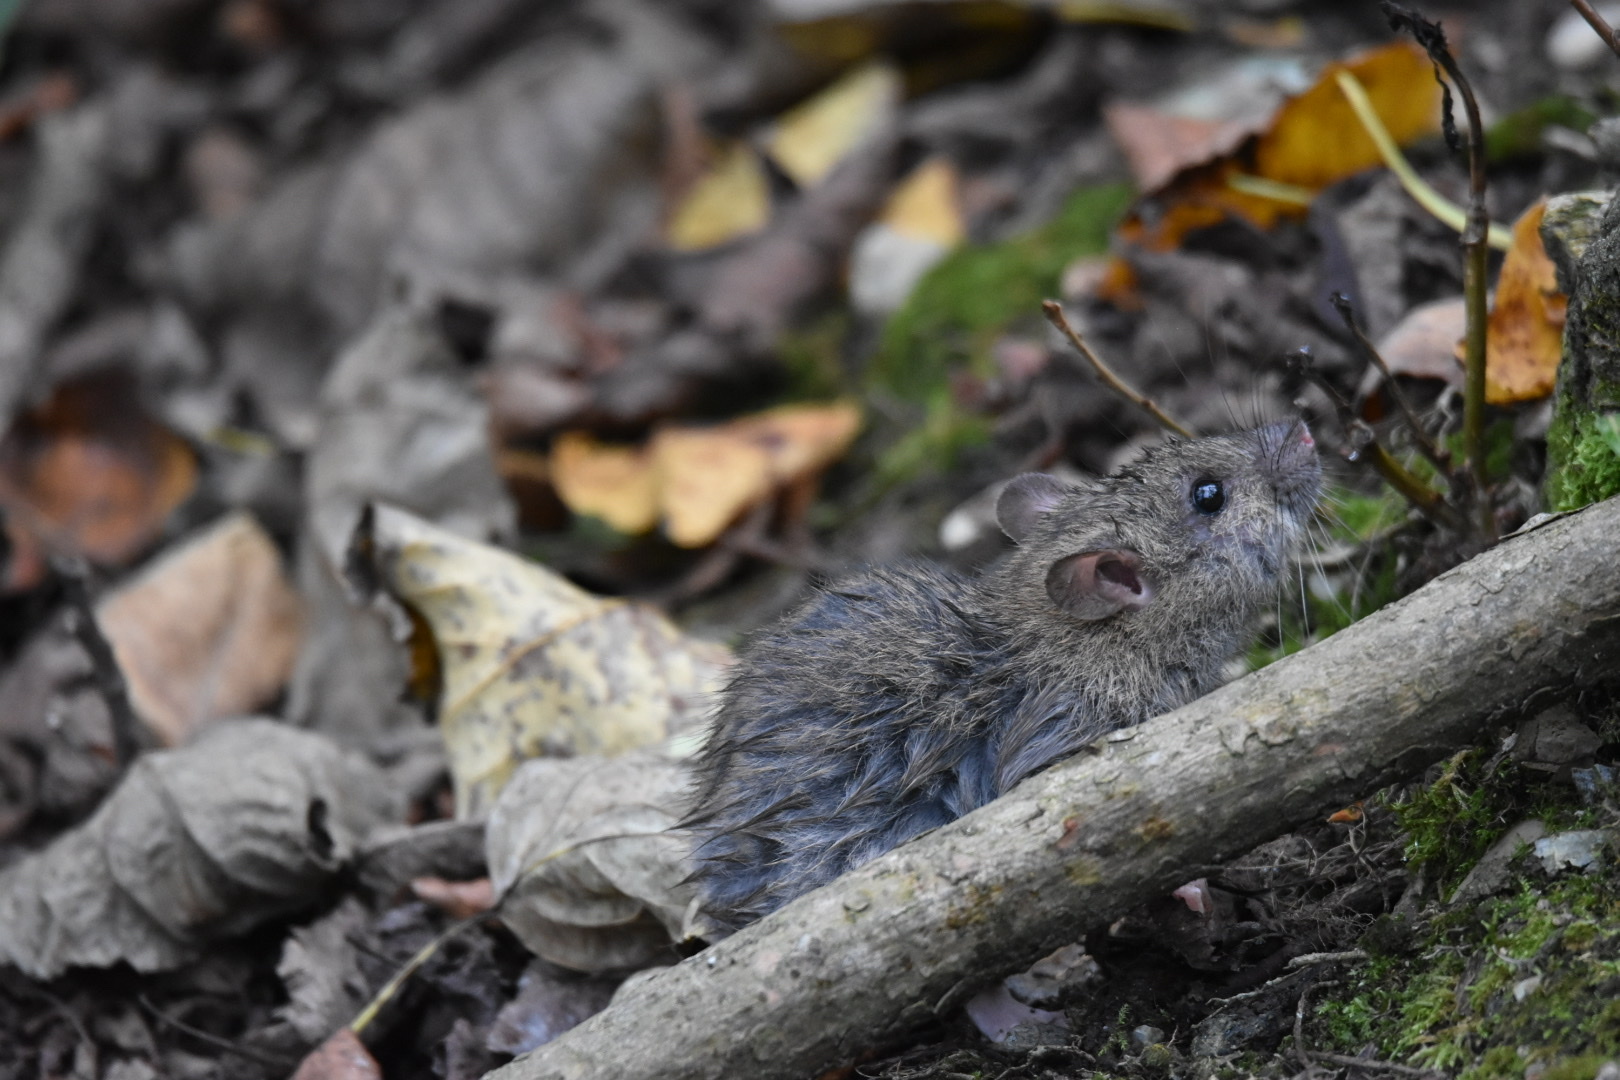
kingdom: Animalia
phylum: Chordata
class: Mammalia
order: Rodentia
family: Muridae
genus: Rattus
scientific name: Rattus norvegicus
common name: Brown rat
